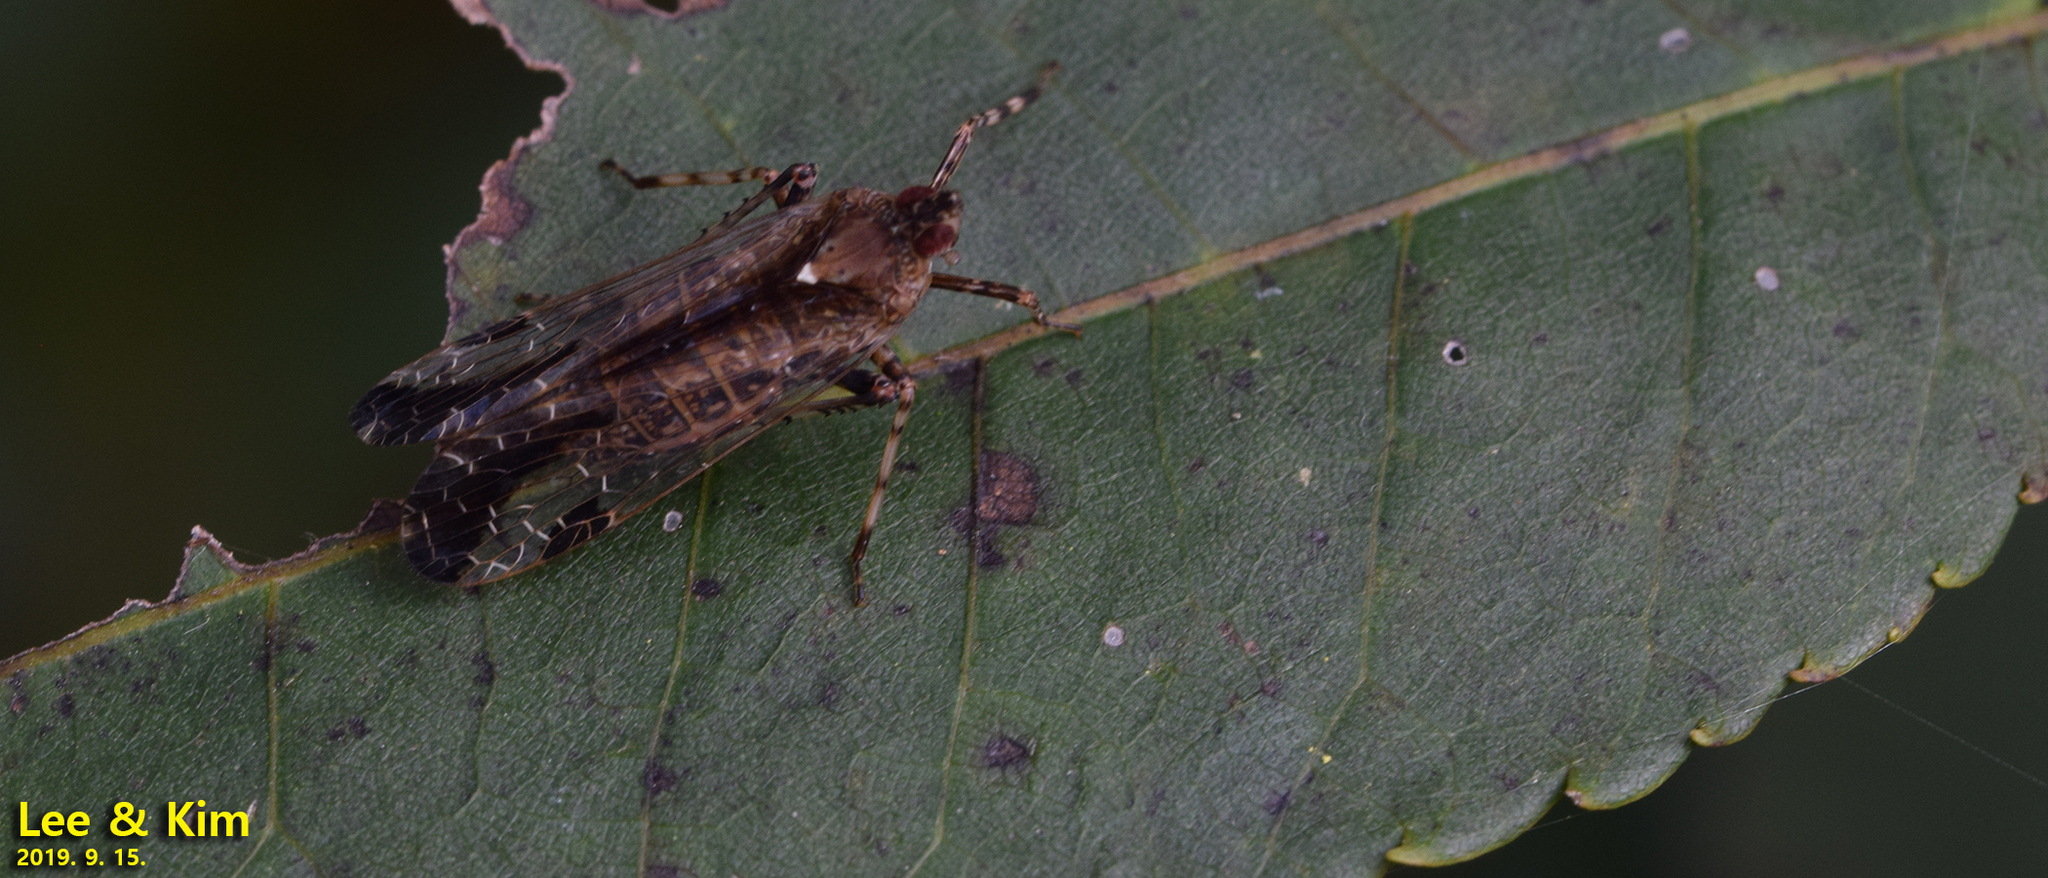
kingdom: Animalia
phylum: Arthropoda
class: Insecta
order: Hemiptera
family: Dictyopharidae
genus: Orthopagus
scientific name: Orthopagus lunulifer
